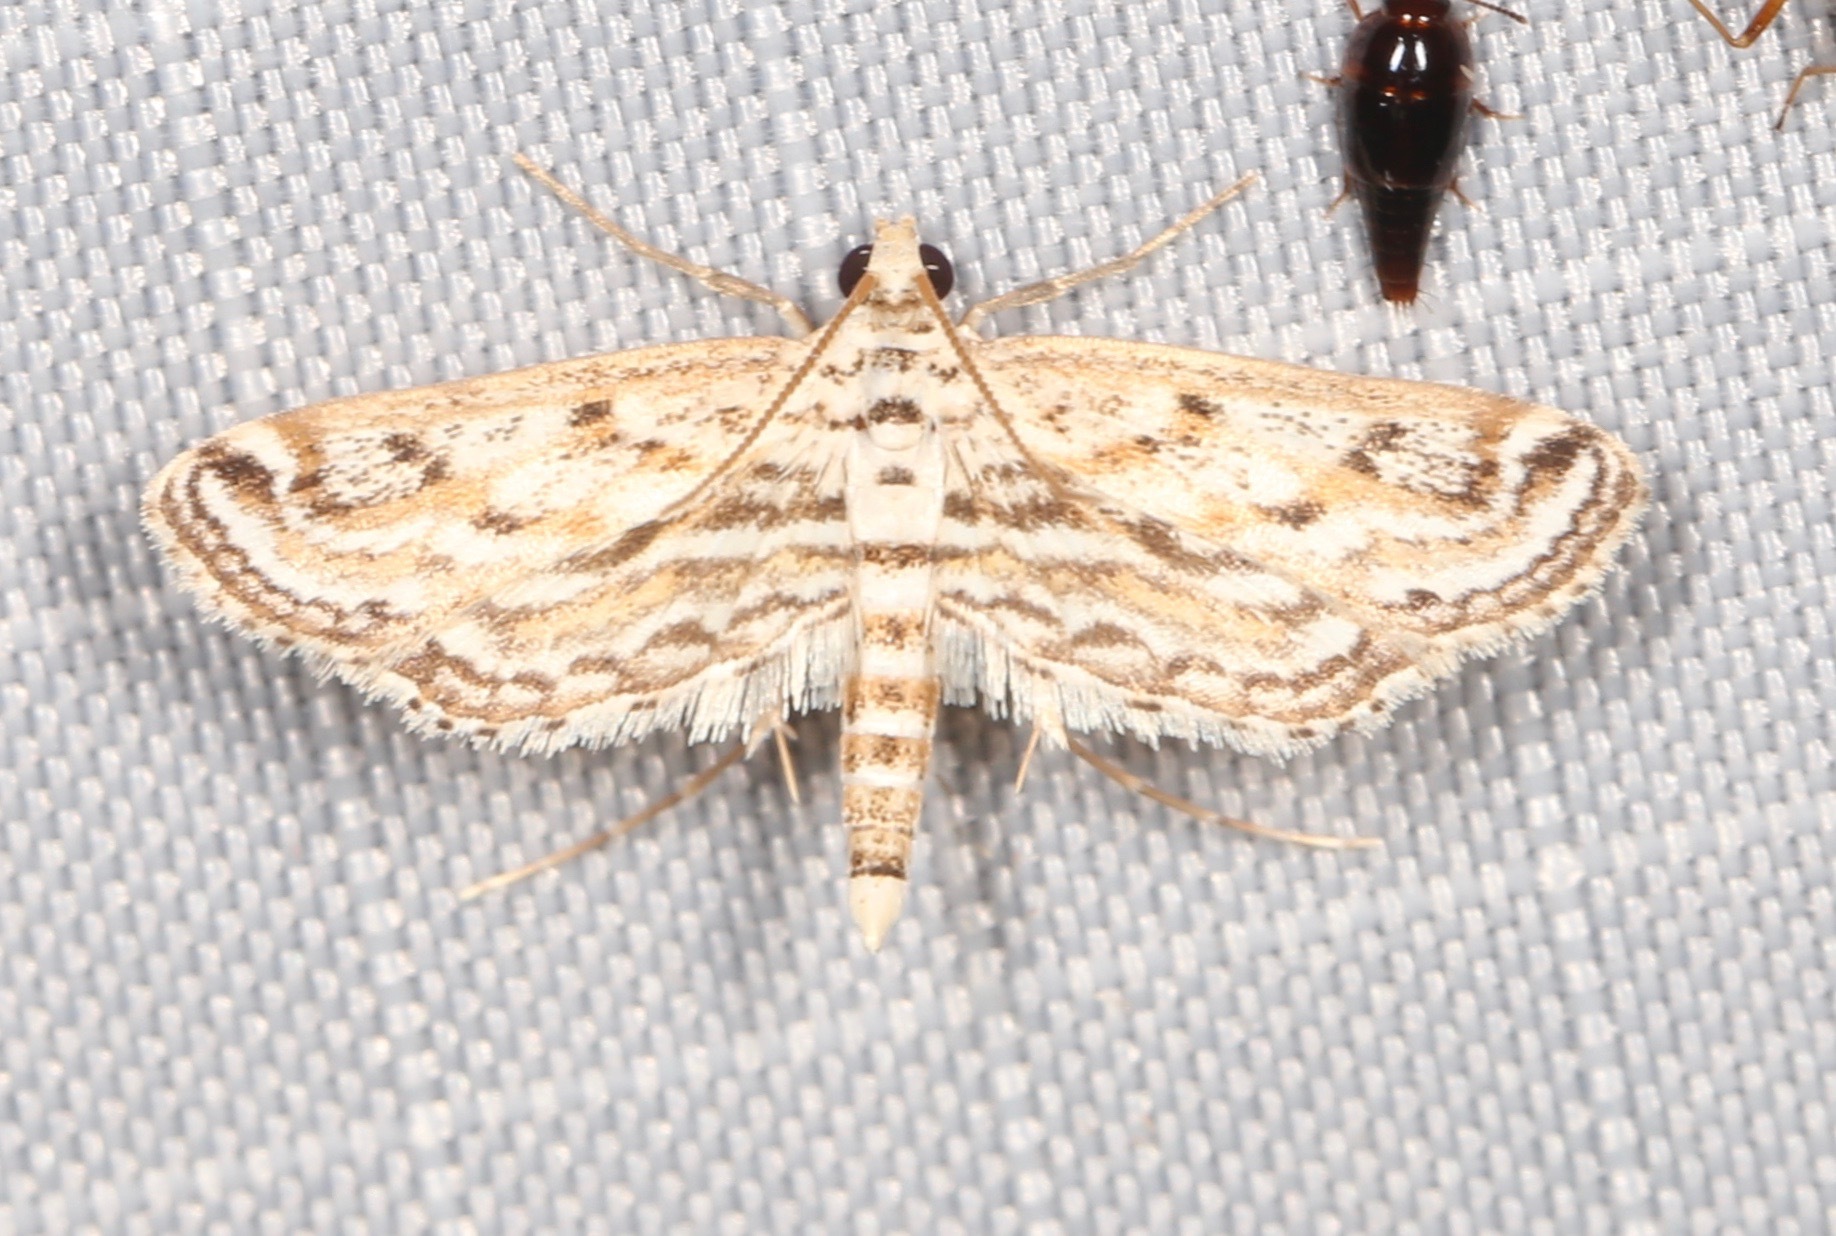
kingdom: Animalia
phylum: Arthropoda
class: Insecta
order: Lepidoptera
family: Crambidae
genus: Parapoynx
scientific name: Parapoynx allionealis
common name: Bladderwort casemaker
